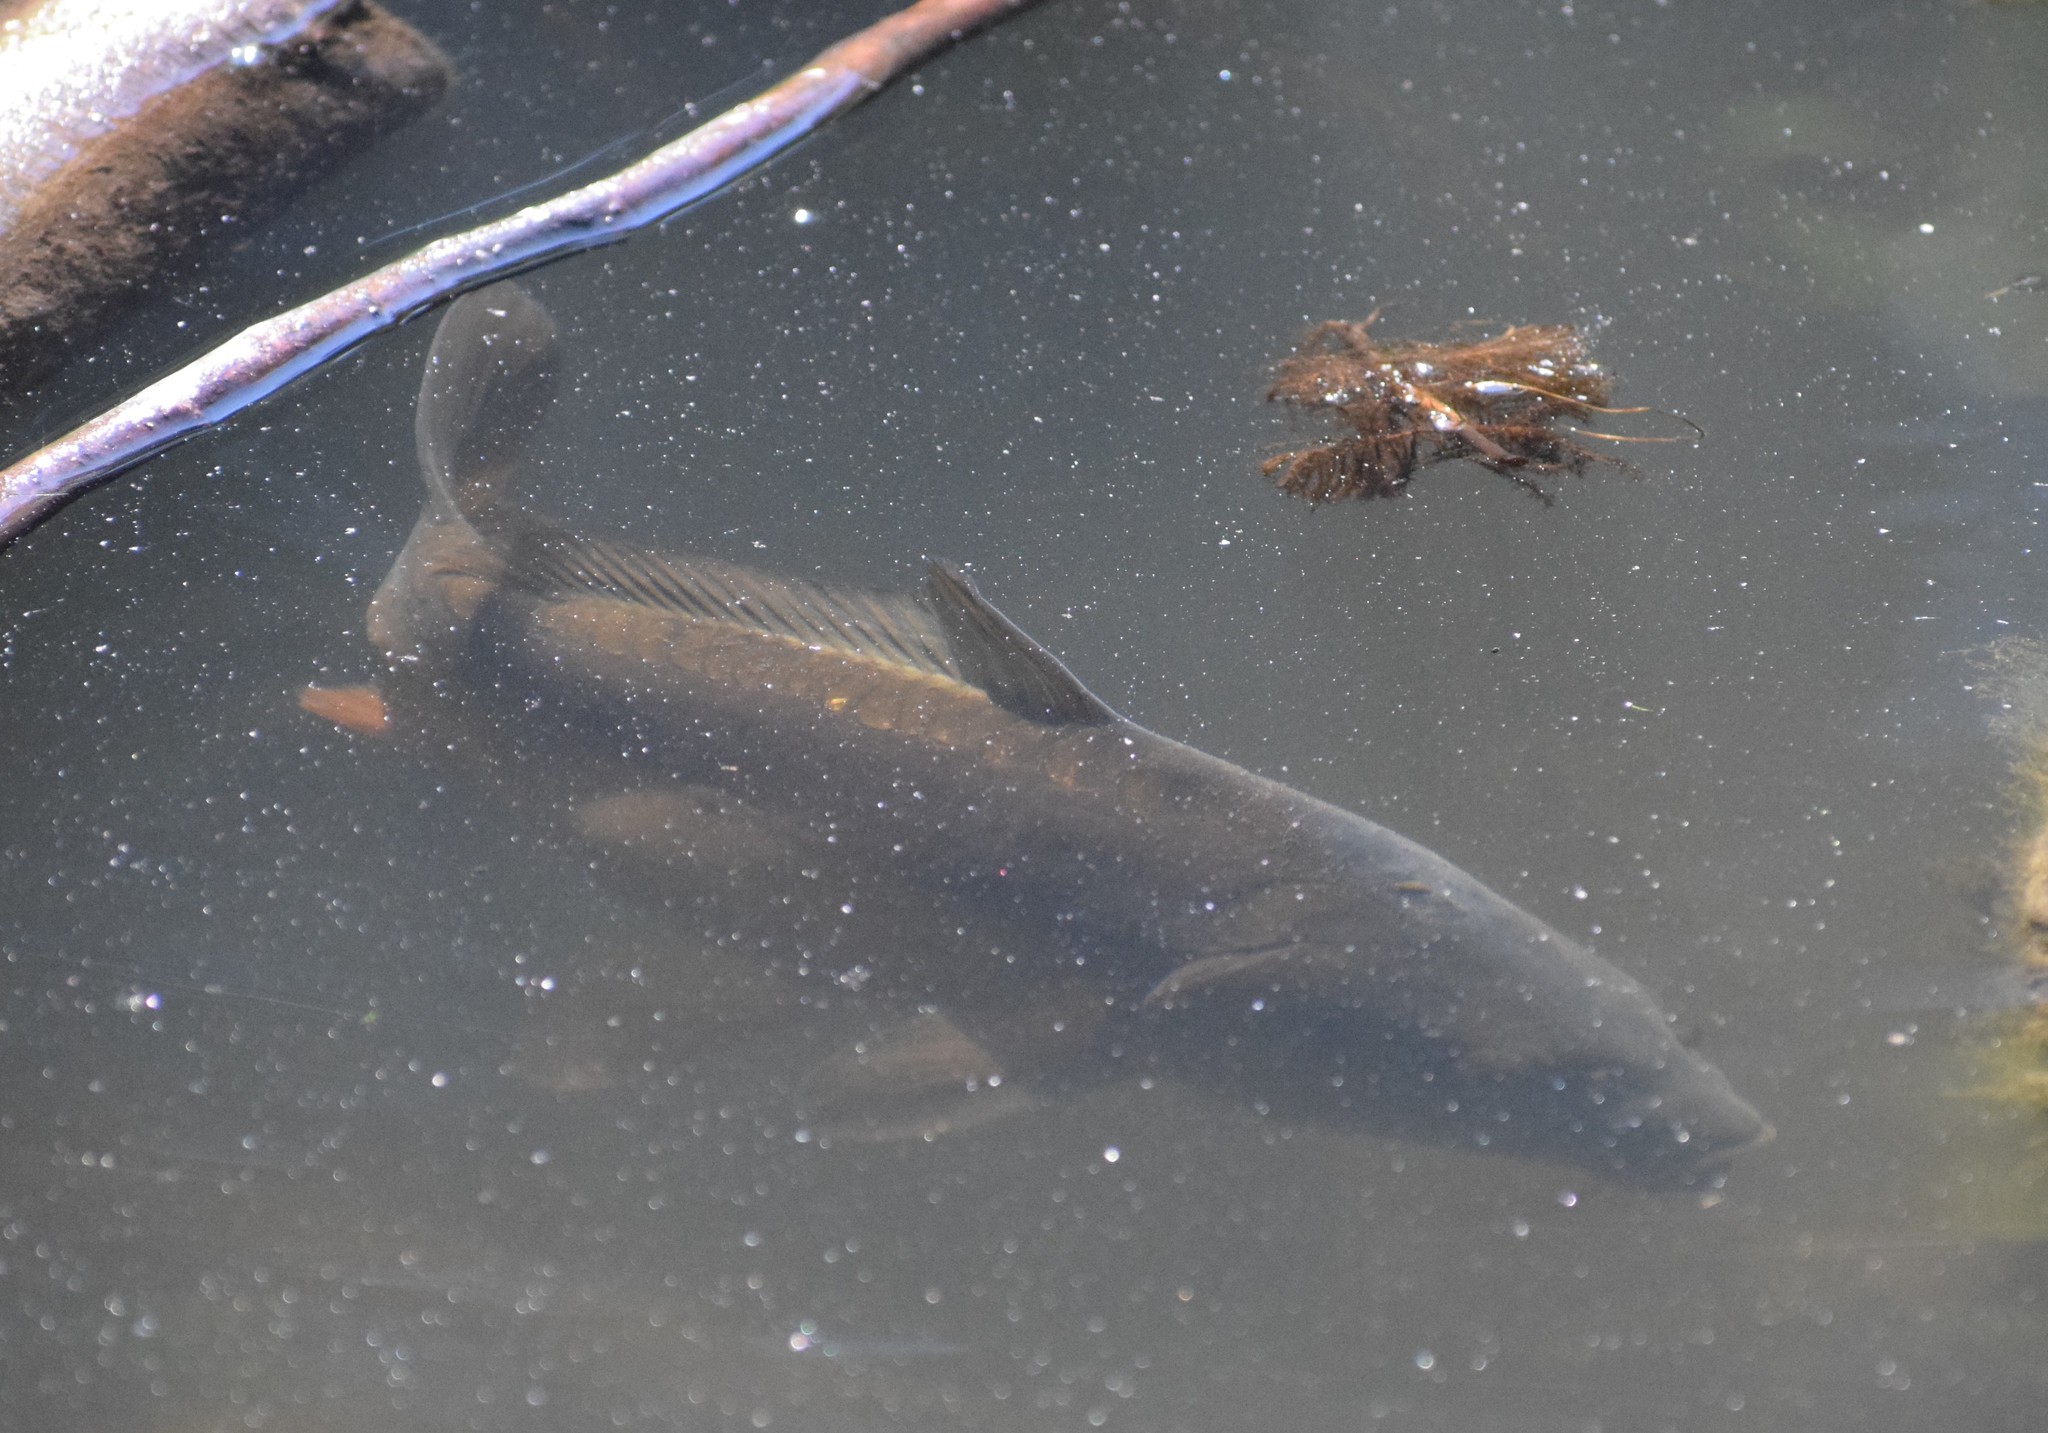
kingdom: Animalia
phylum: Chordata
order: Cypriniformes
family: Cyprinidae
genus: Cyprinus
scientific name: Cyprinus carpio
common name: Common carp
